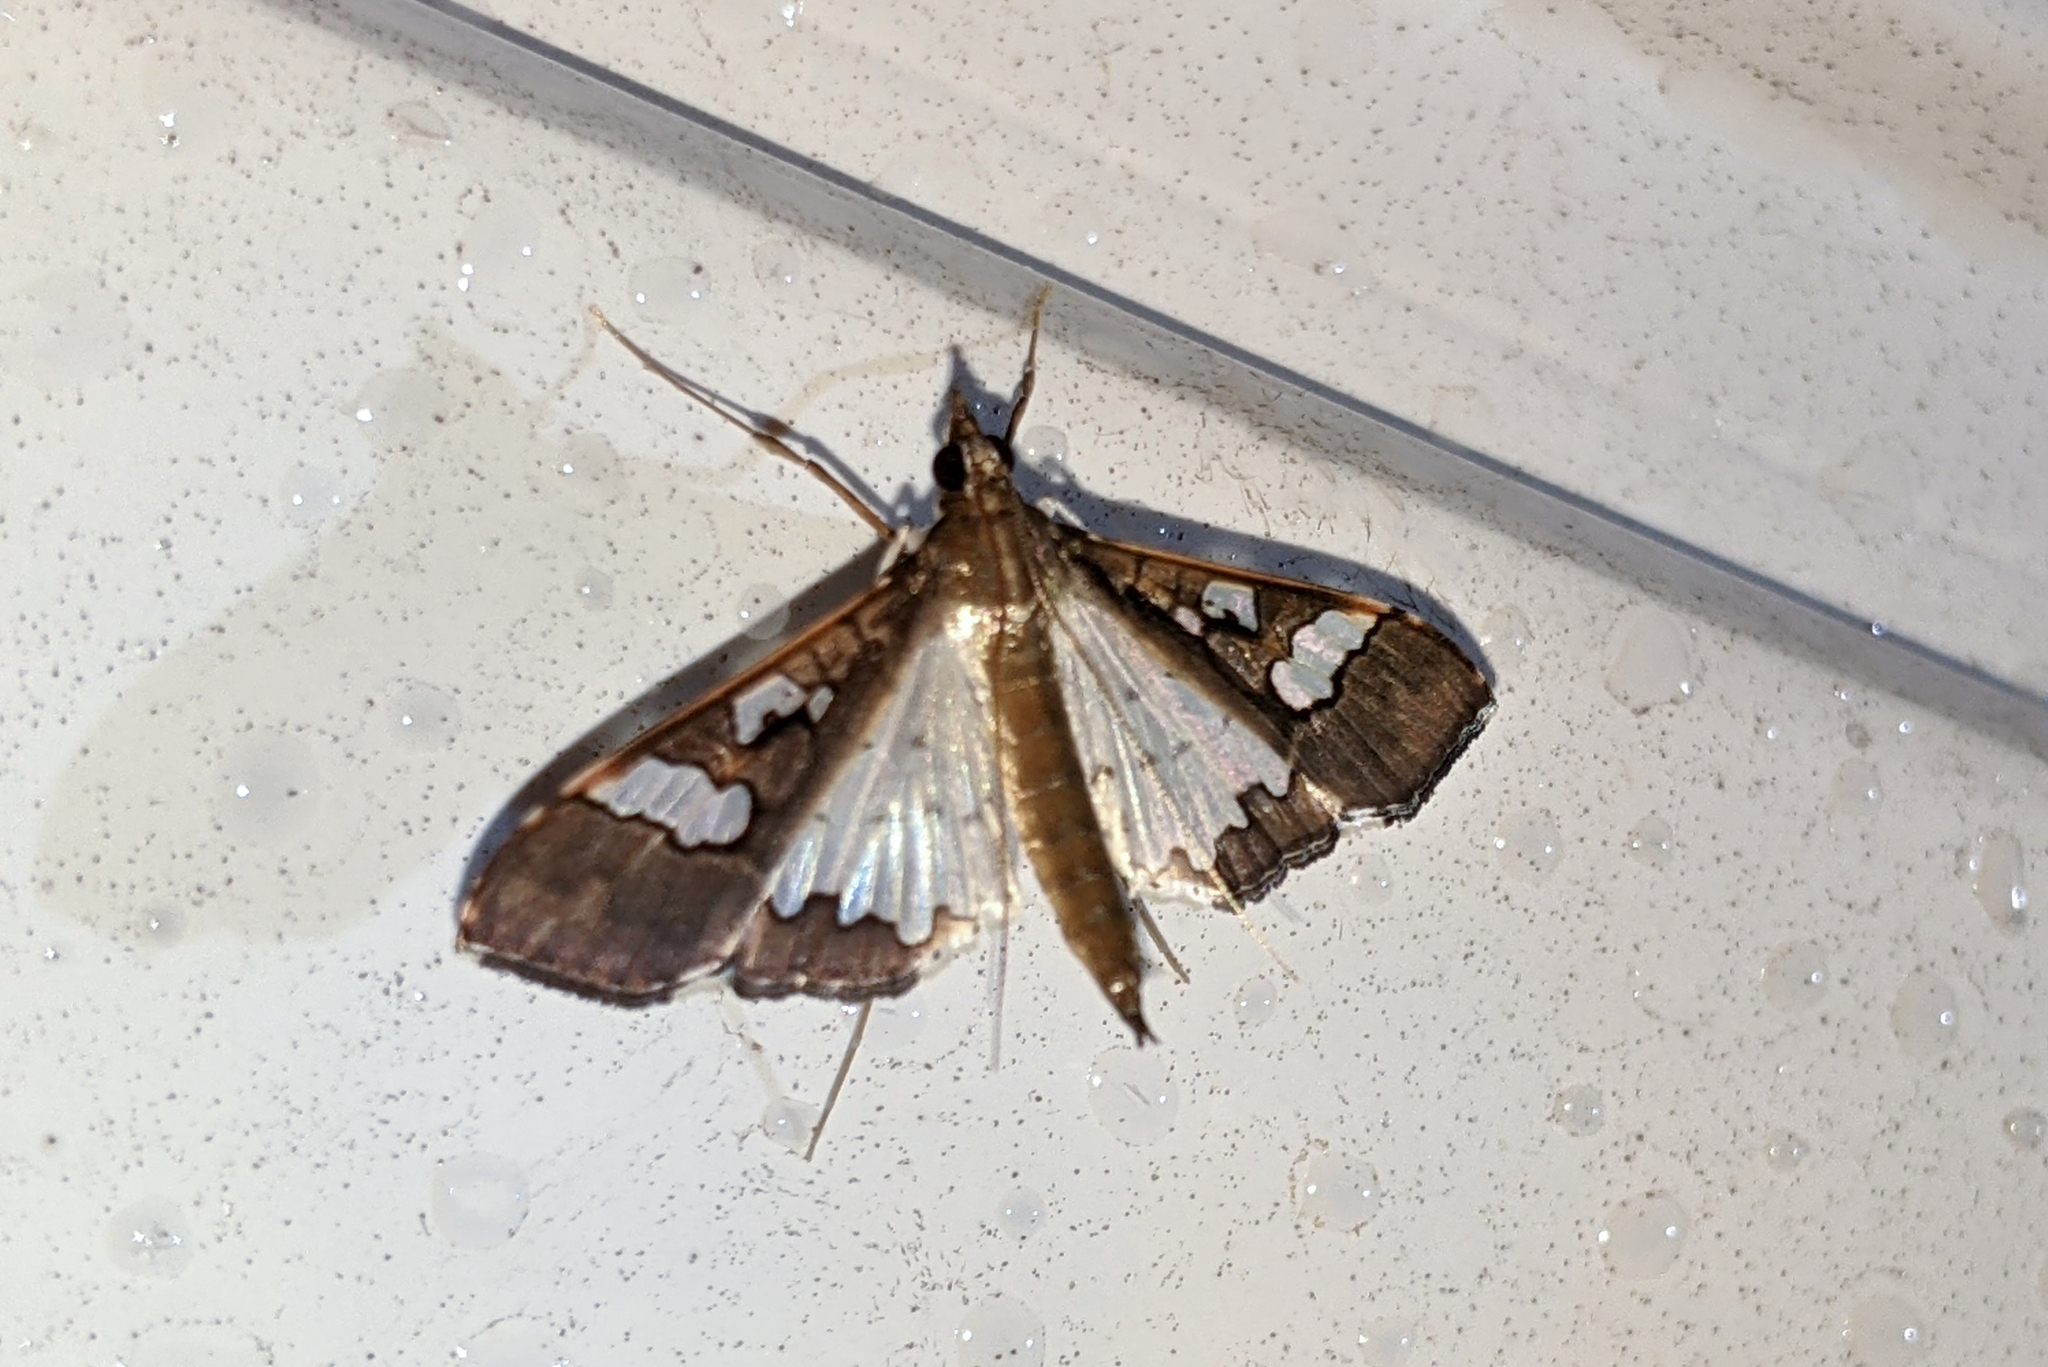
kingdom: Animalia
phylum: Arthropoda
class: Insecta
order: Lepidoptera
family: Crambidae
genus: Maruca
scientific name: Maruca vitrata
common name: Maruca pod borer
